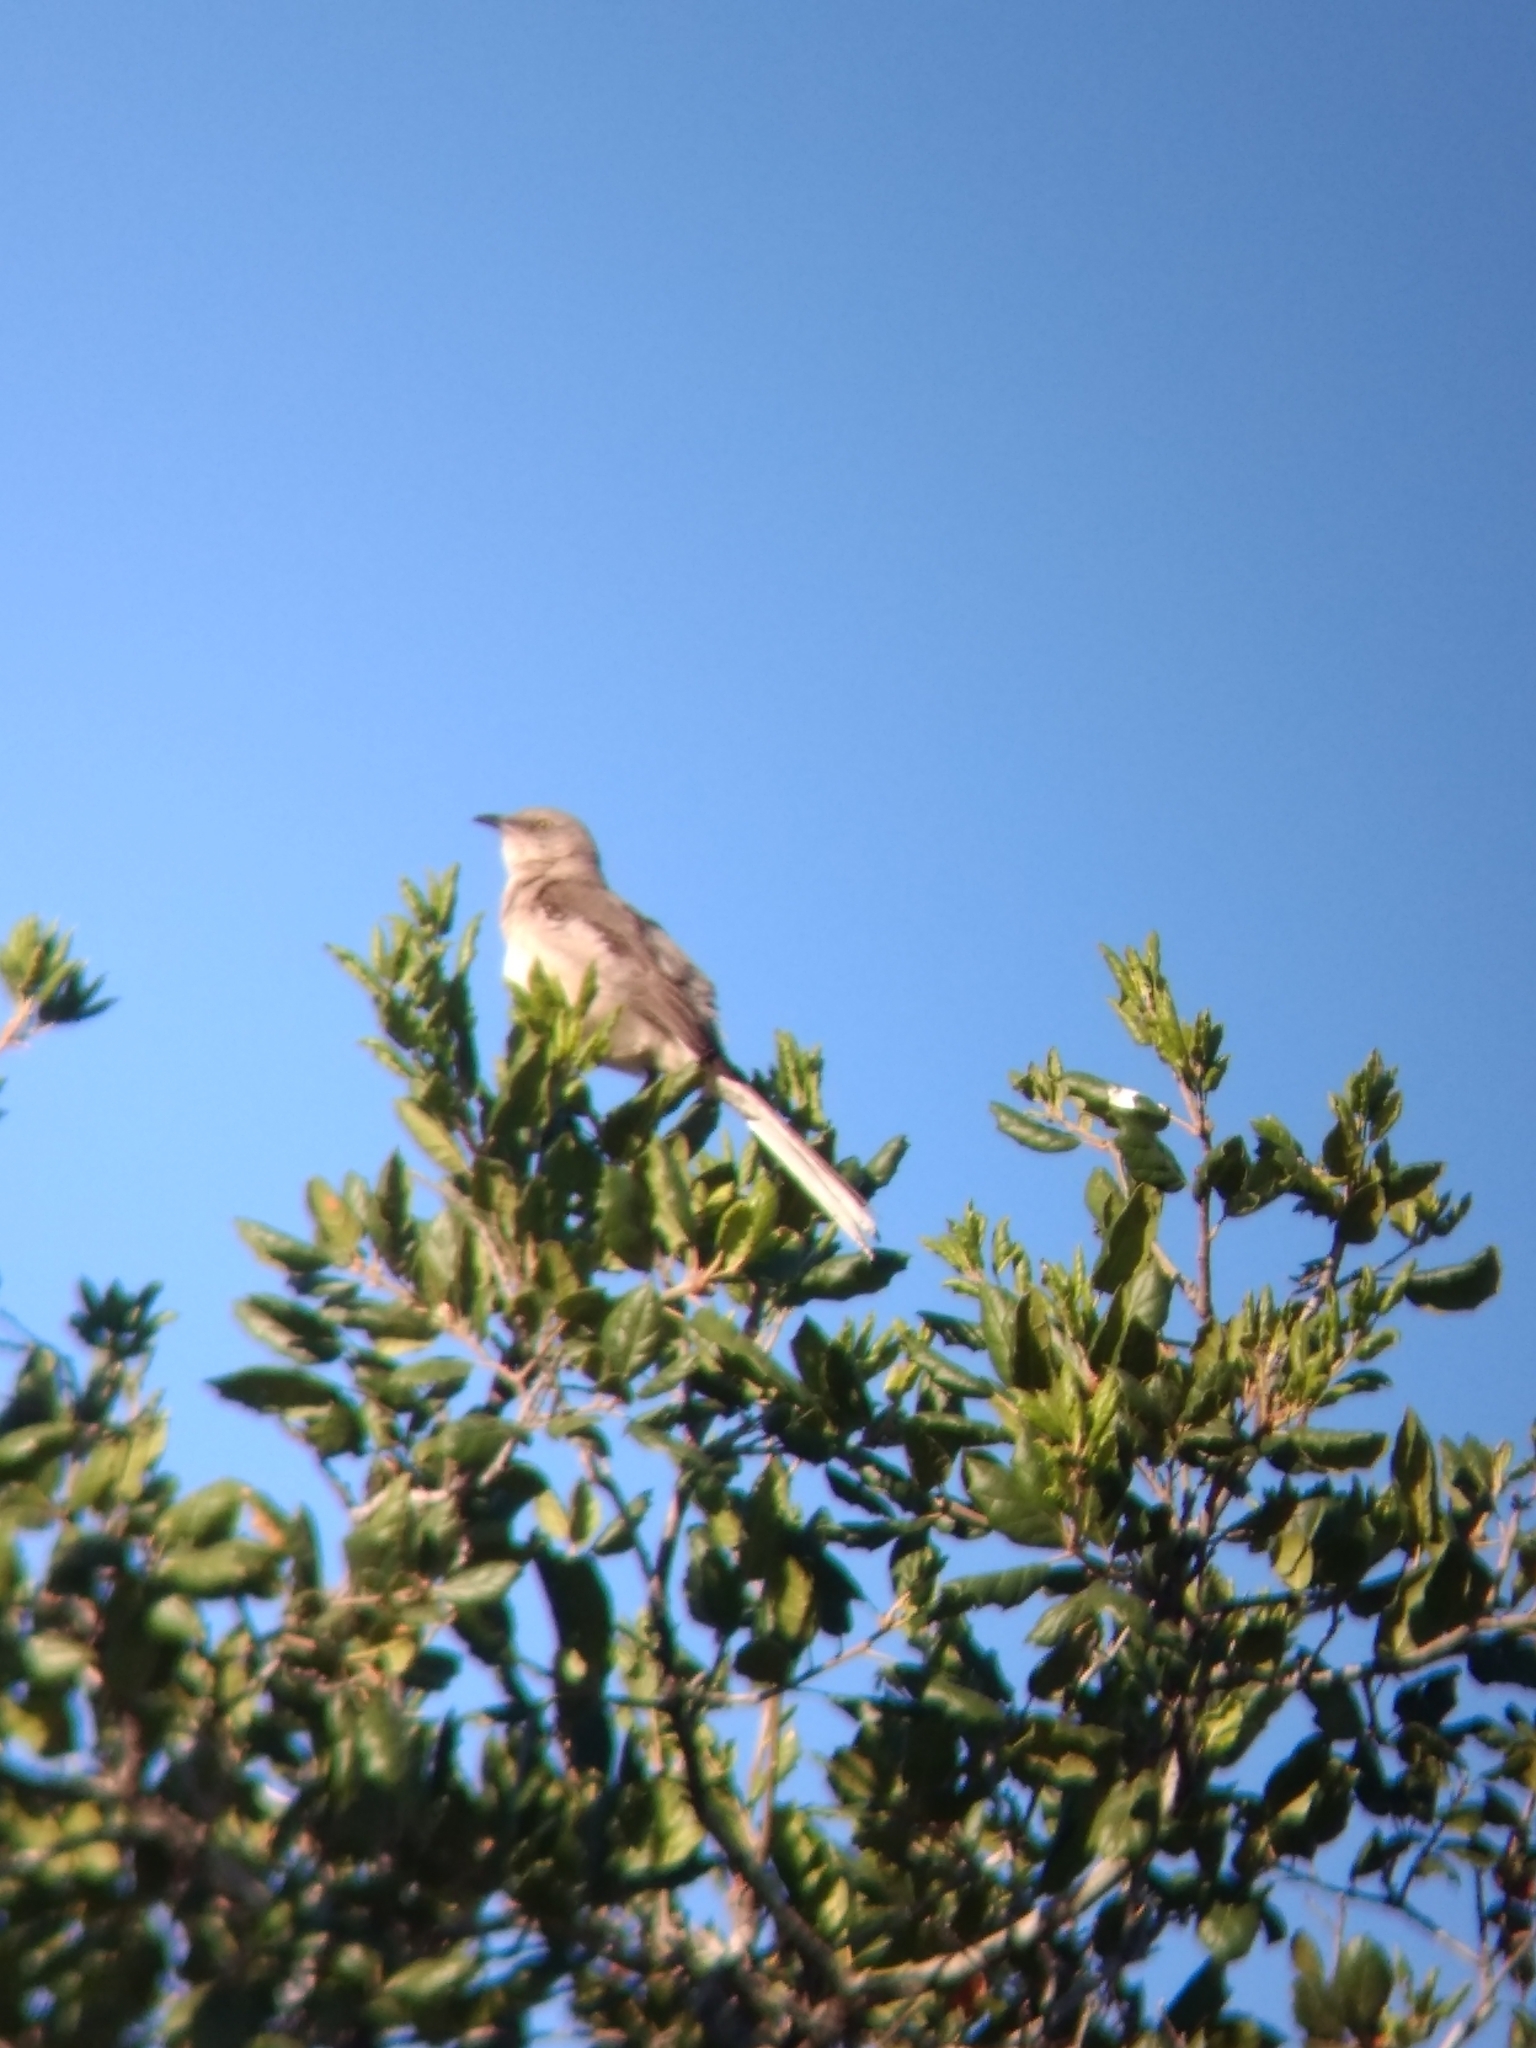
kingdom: Animalia
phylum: Chordata
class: Aves
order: Passeriformes
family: Mimidae
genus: Mimus
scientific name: Mimus polyglottos
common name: Northern mockingbird
